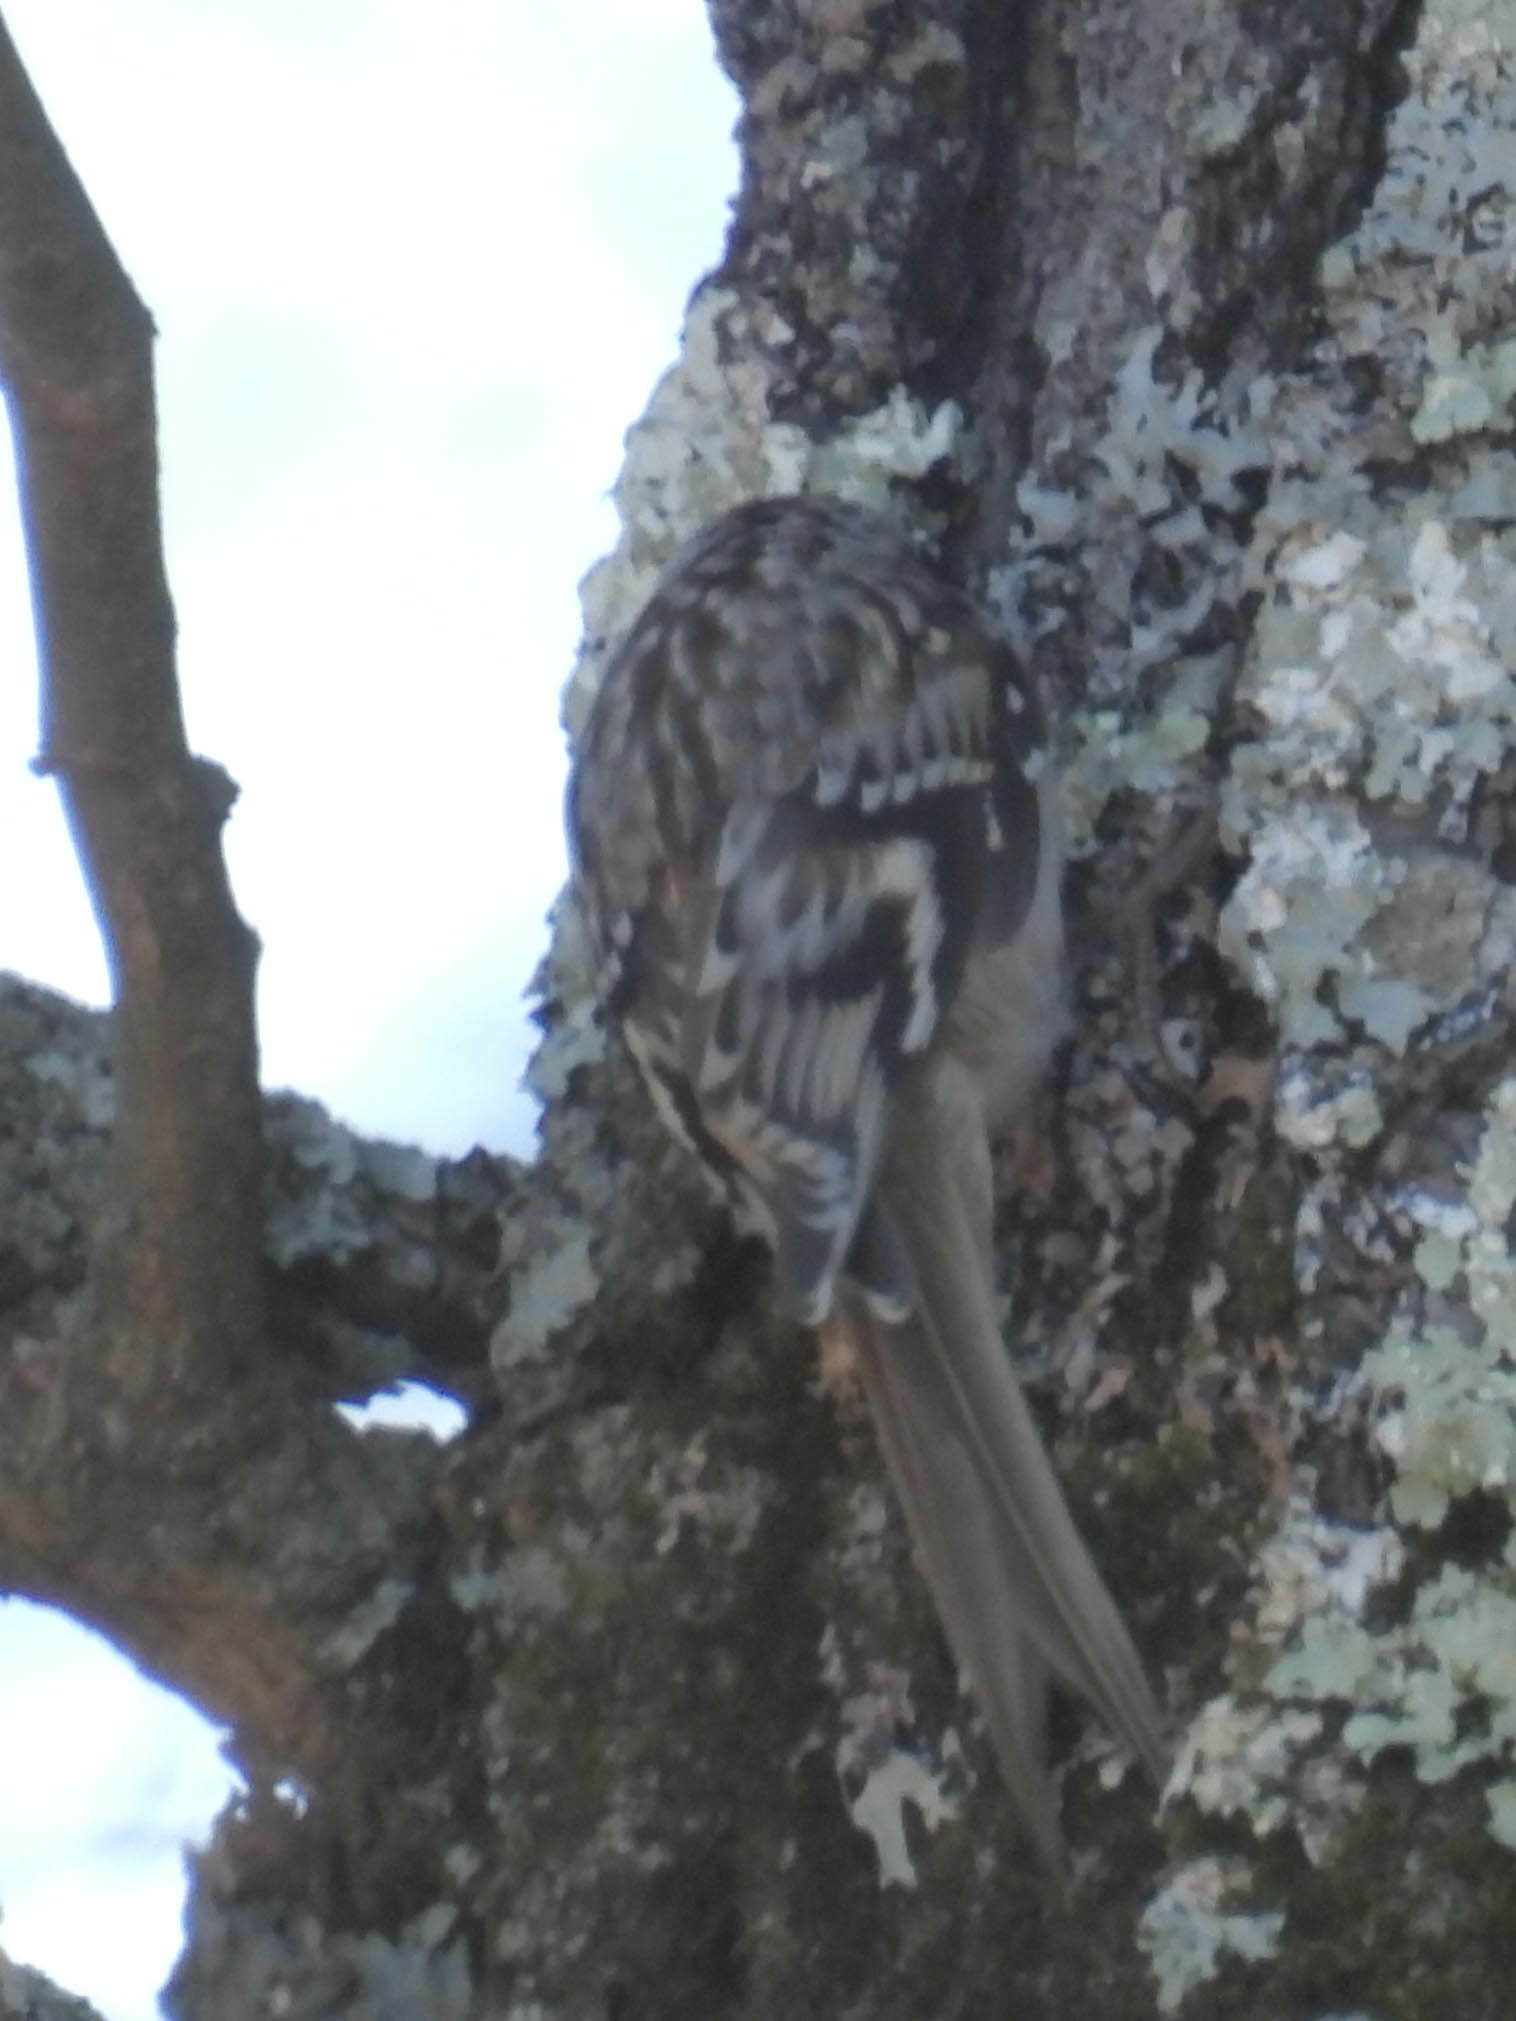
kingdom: Animalia
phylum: Chordata
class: Aves
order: Passeriformes
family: Certhiidae
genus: Certhia
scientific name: Certhia americana
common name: Brown creeper
